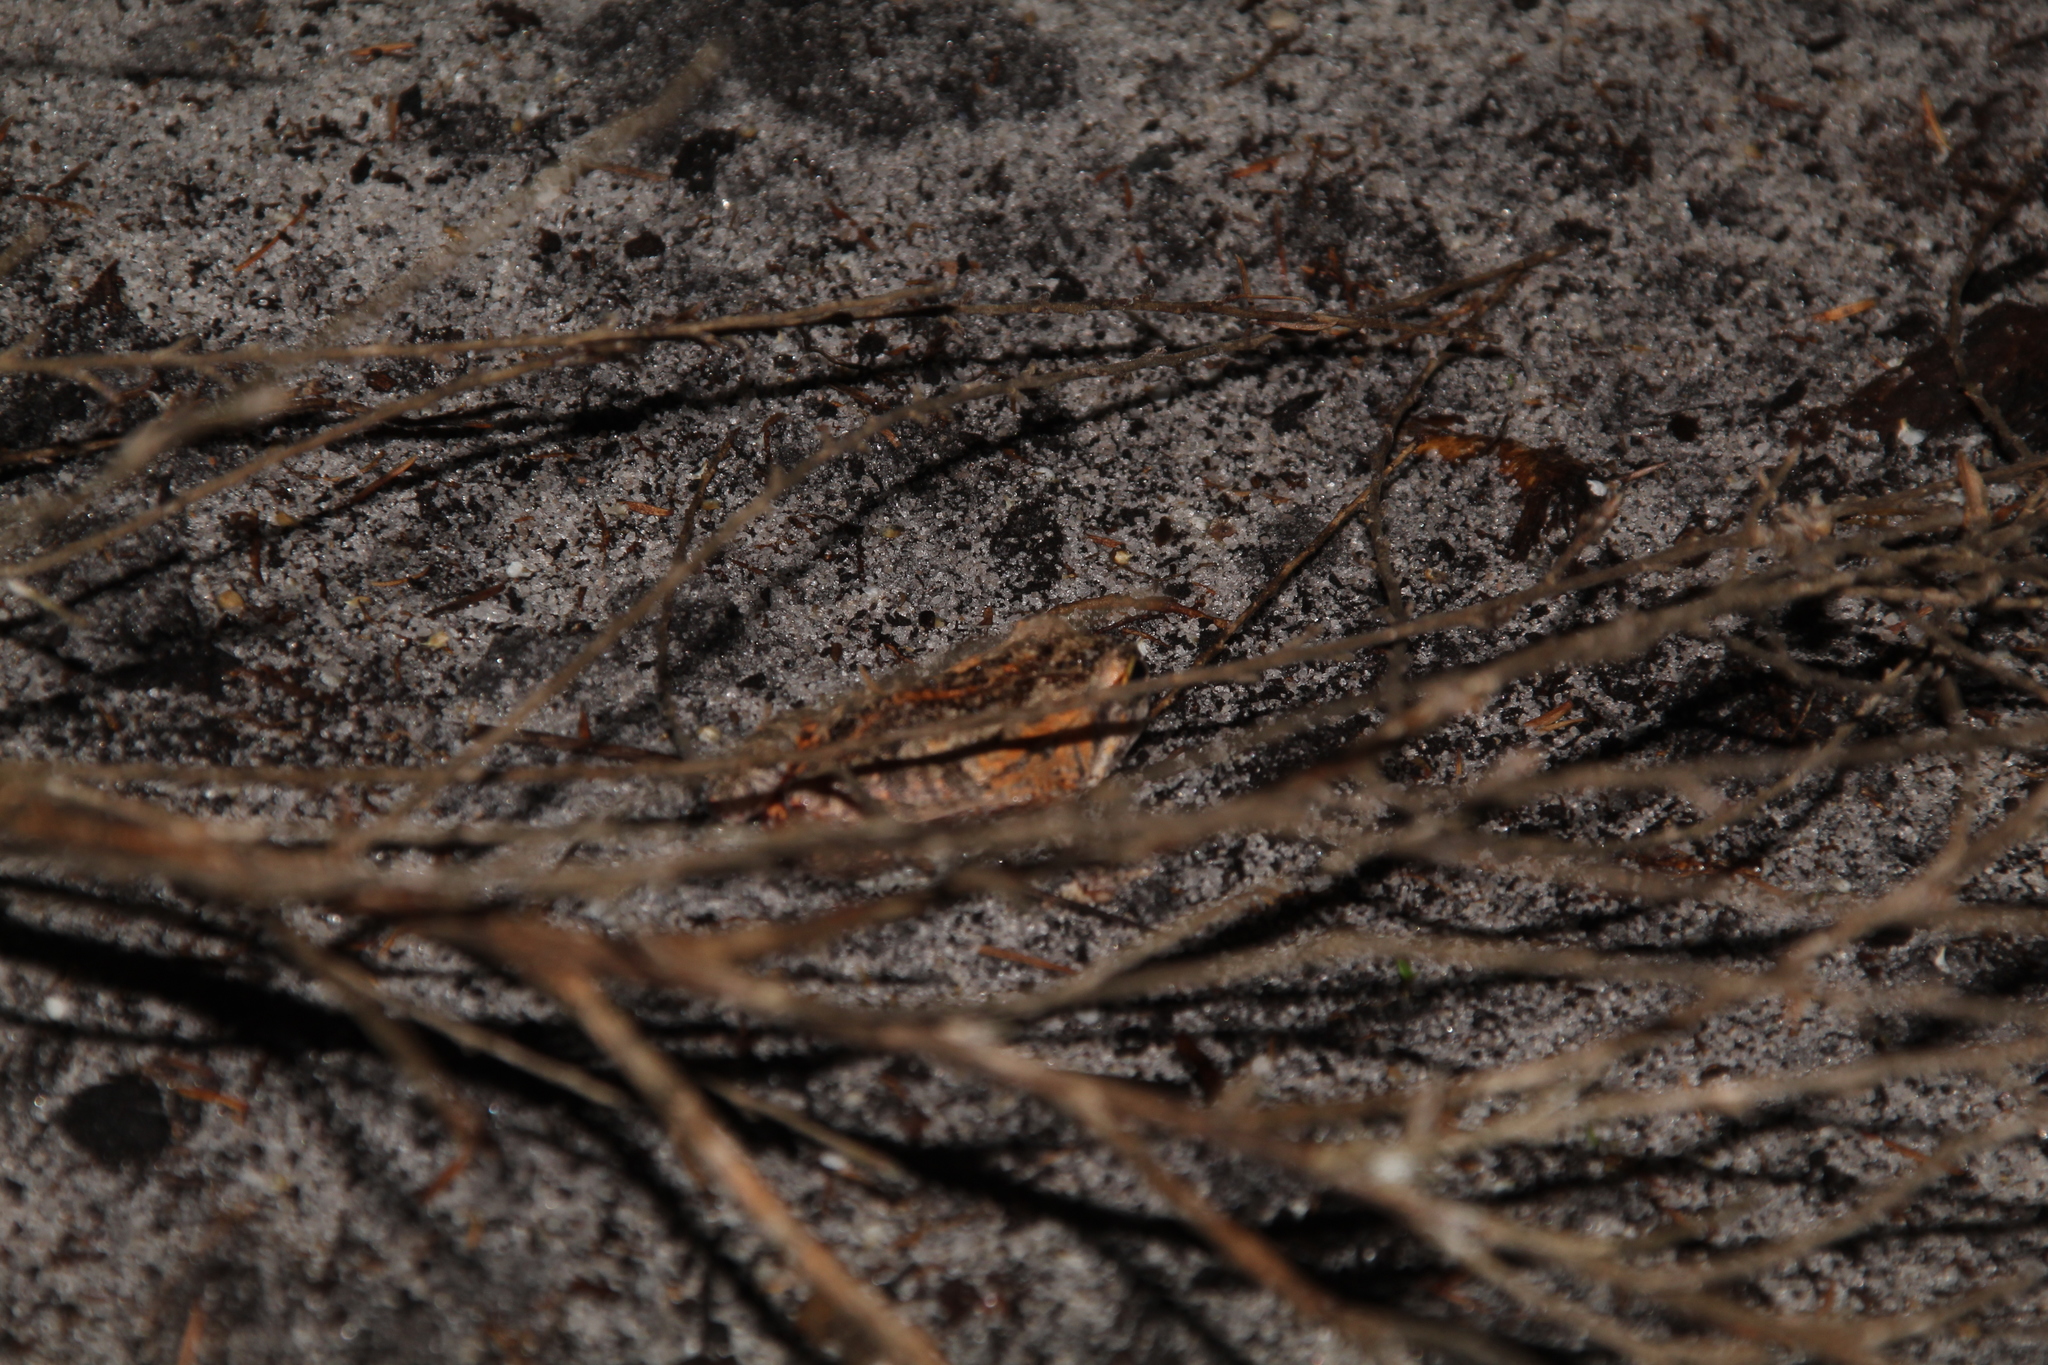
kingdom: Animalia
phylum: Chordata
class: Amphibia
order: Anura
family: Myobatrachidae
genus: Crinia
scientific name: Crinia georgiana
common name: Quacking frog
